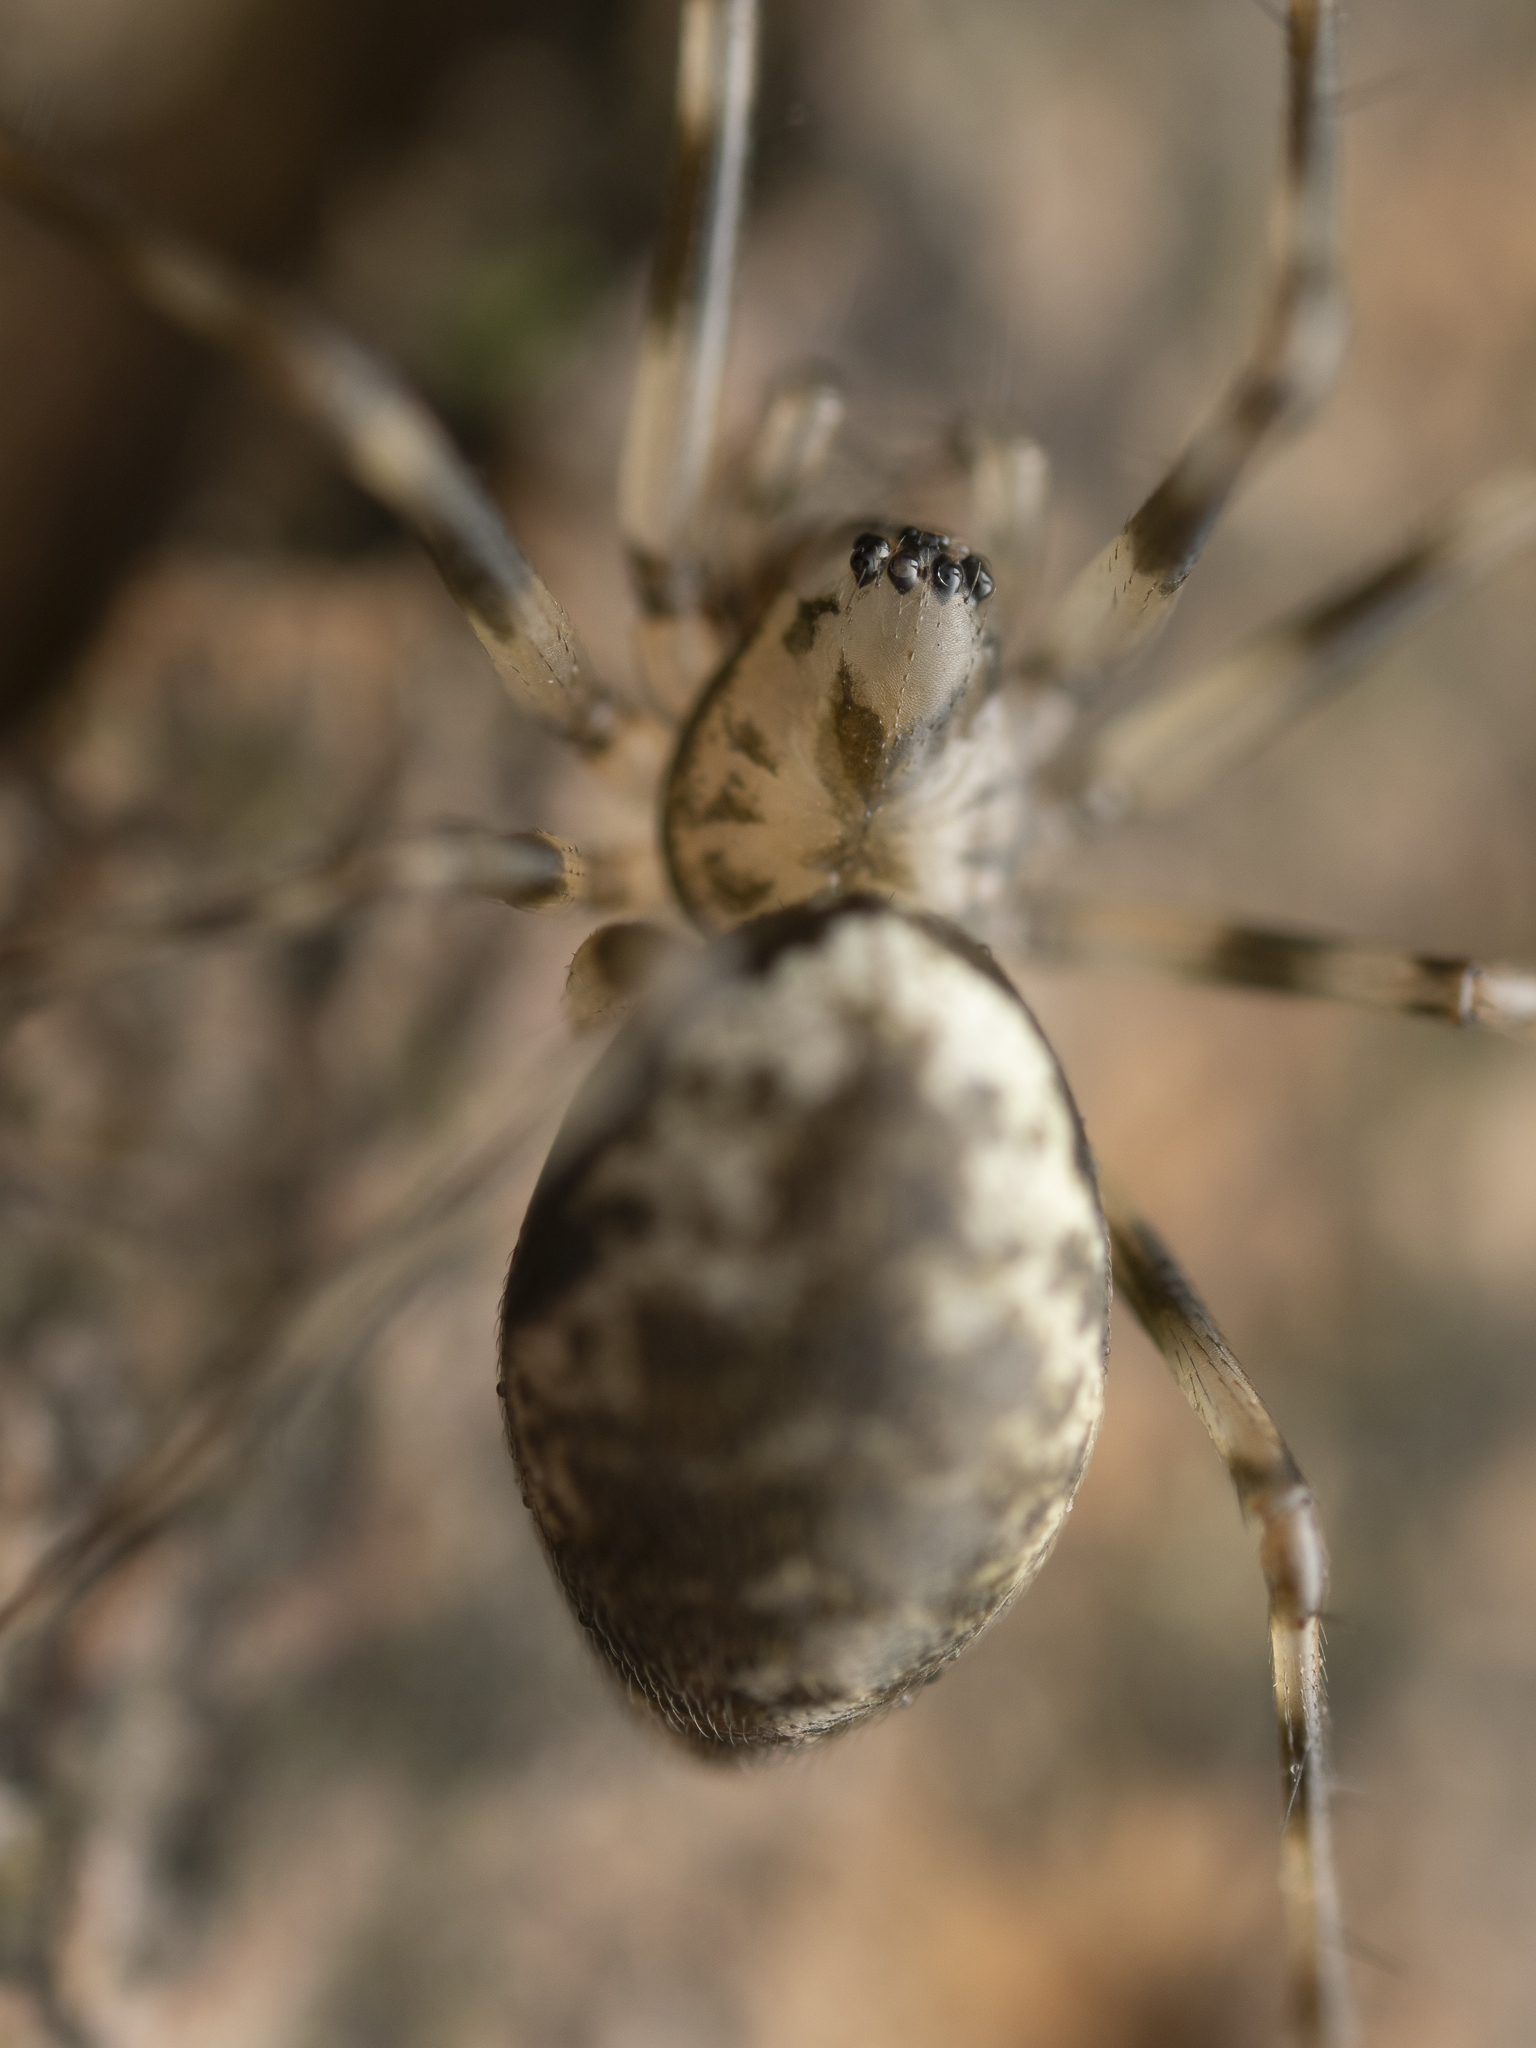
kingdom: Animalia
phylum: Arthropoda
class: Arachnida
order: Araneae
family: Linyphiidae
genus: Drapetisca
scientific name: Drapetisca socialis
